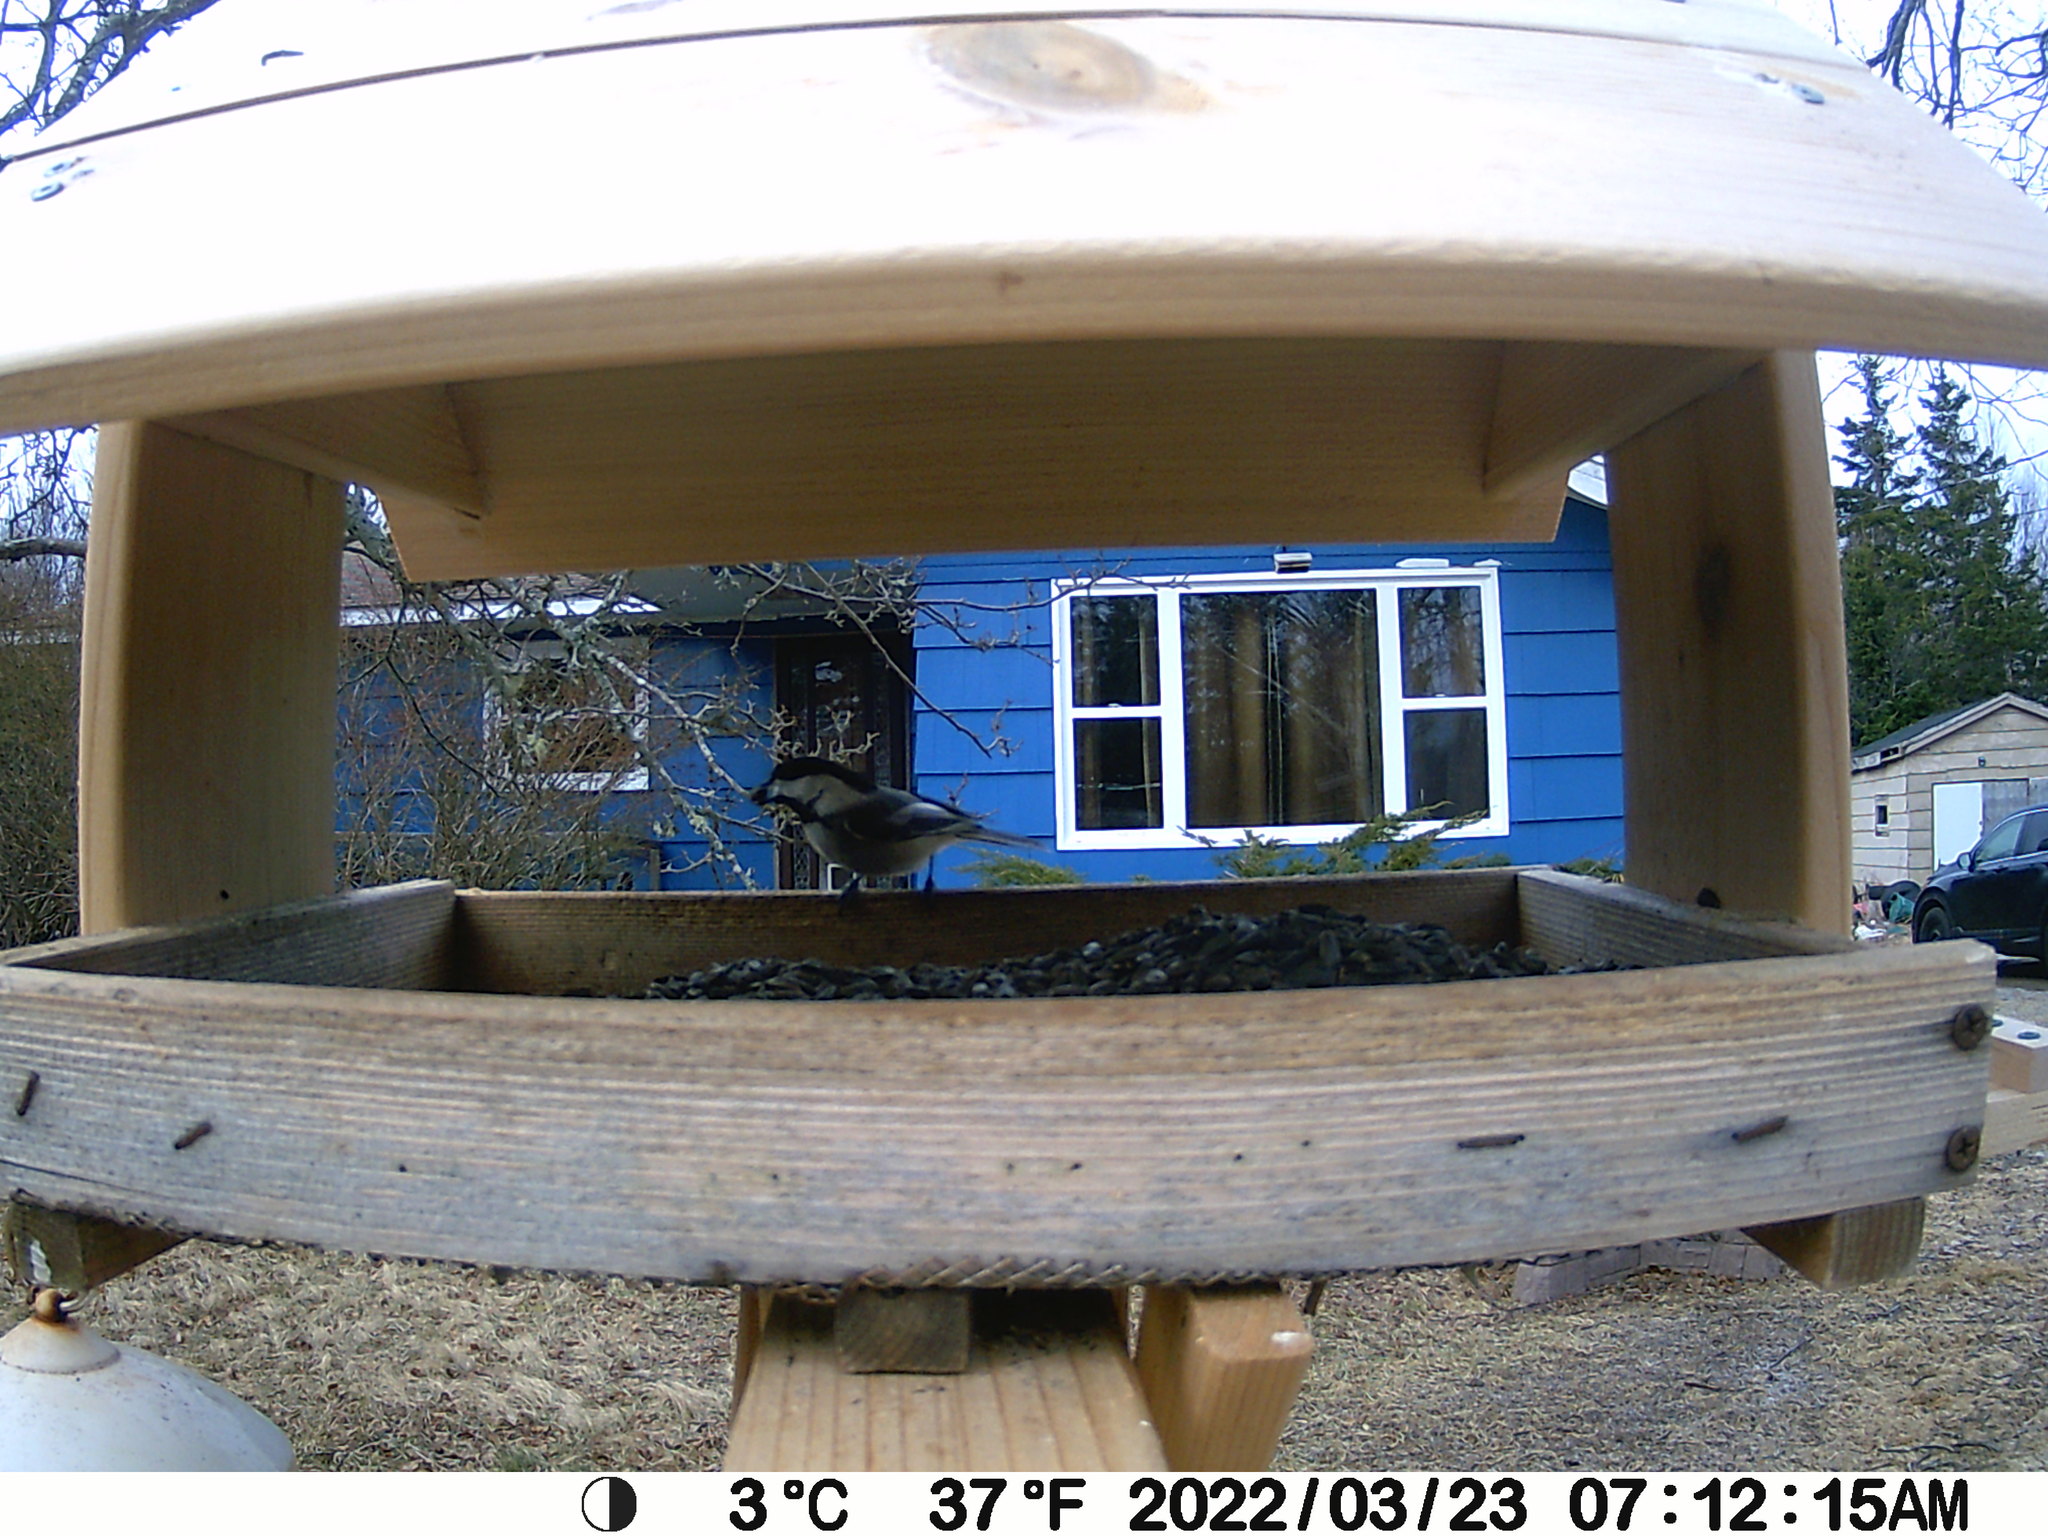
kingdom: Animalia
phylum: Chordata
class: Aves
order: Passeriformes
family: Paridae
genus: Poecile
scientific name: Poecile atricapillus
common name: Black-capped chickadee
